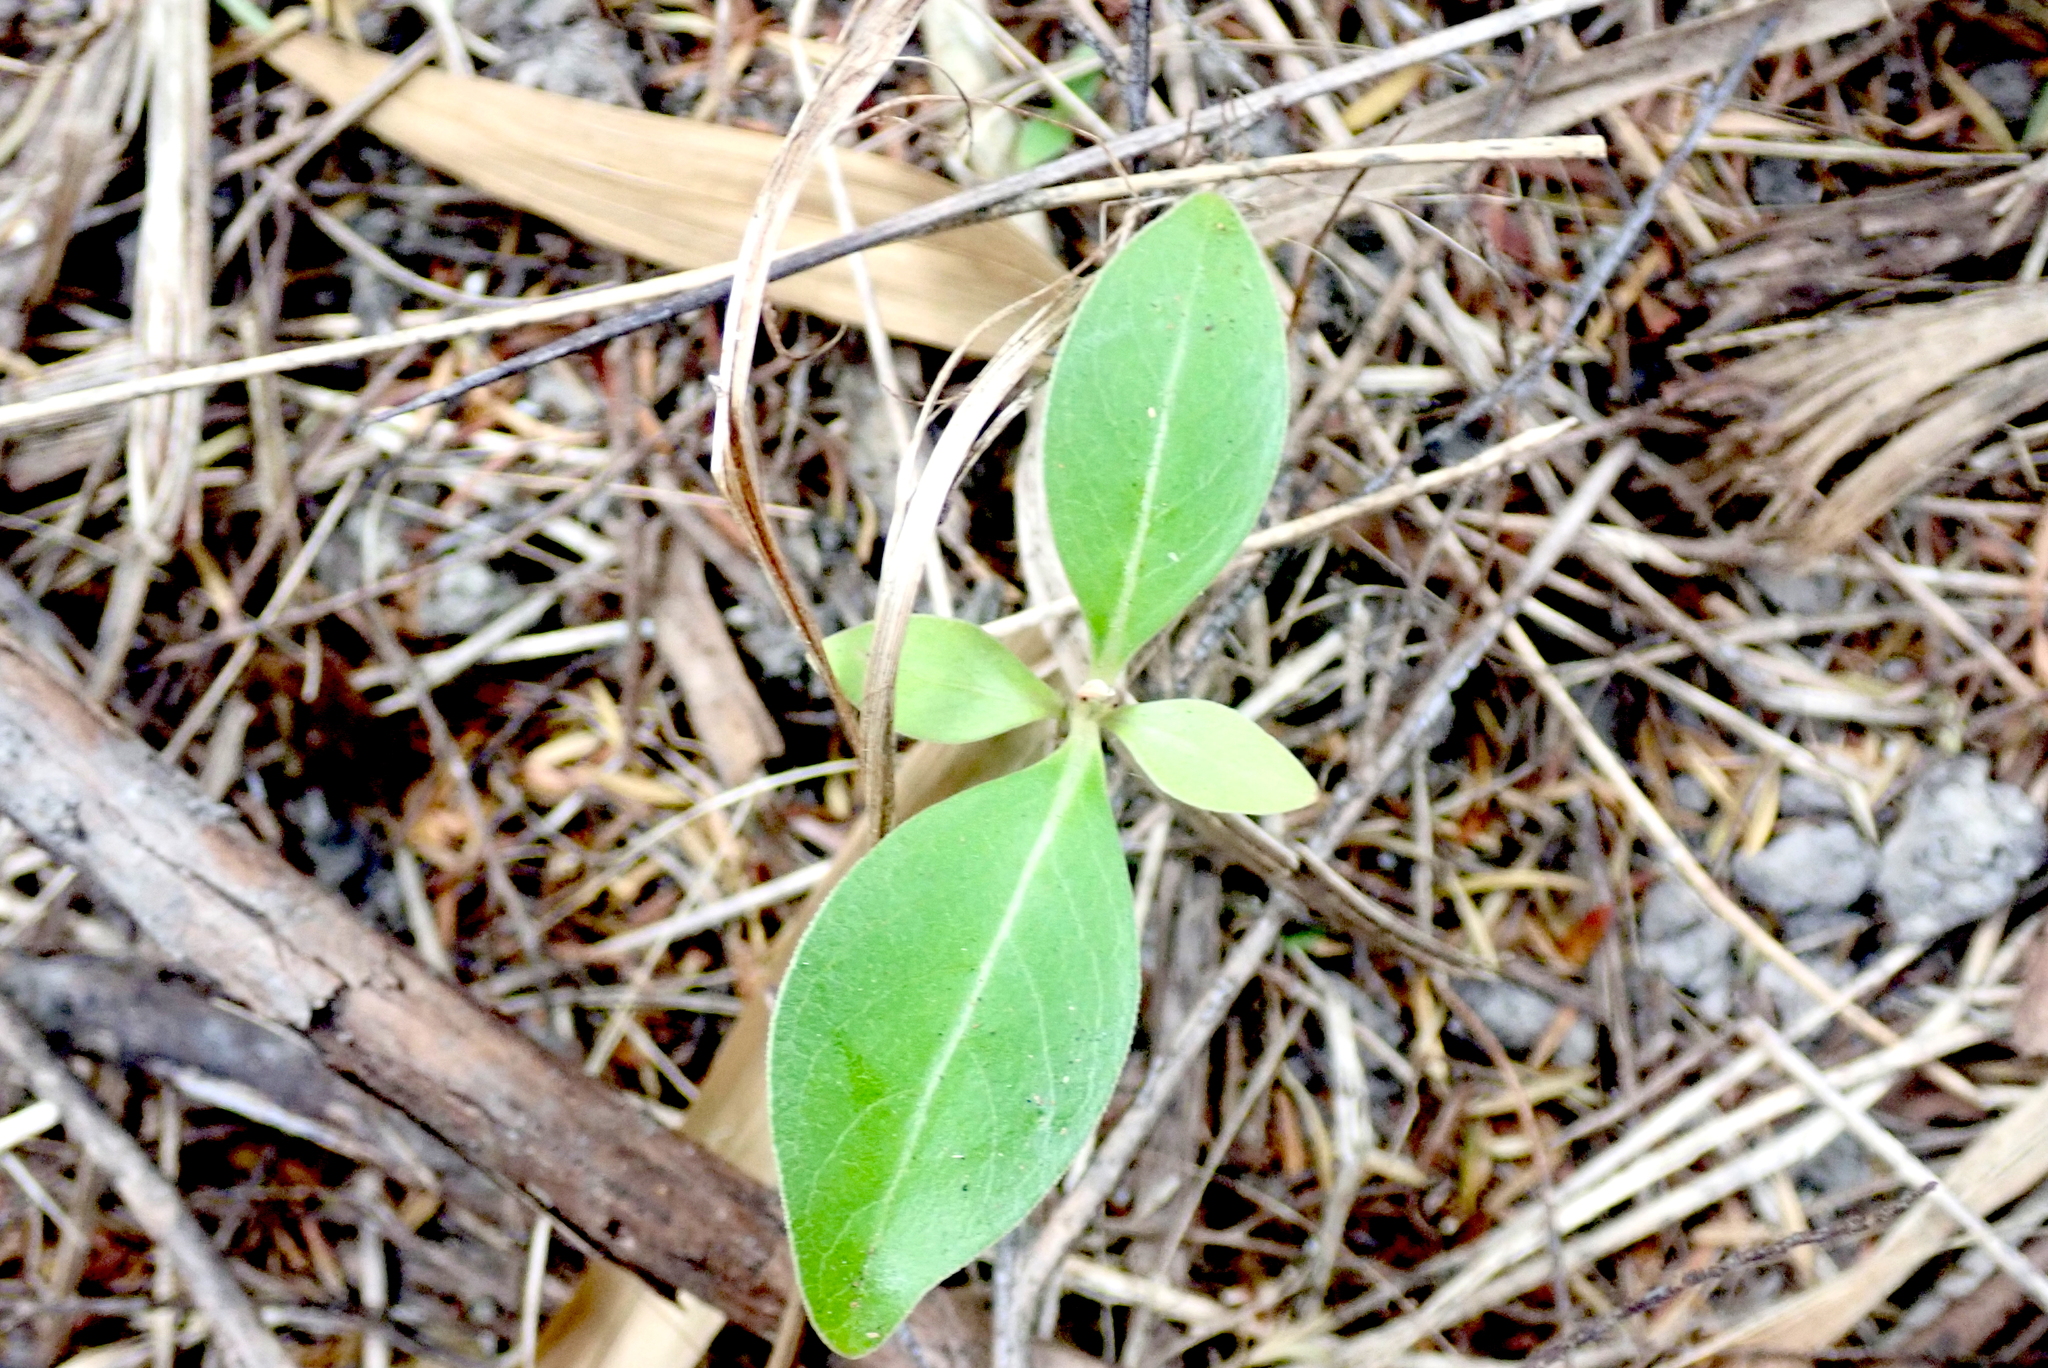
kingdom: Plantae
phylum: Tracheophyta
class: Magnoliopsida
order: Gentianales
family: Rubiaceae
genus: Coprosma
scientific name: Coprosma robusta
